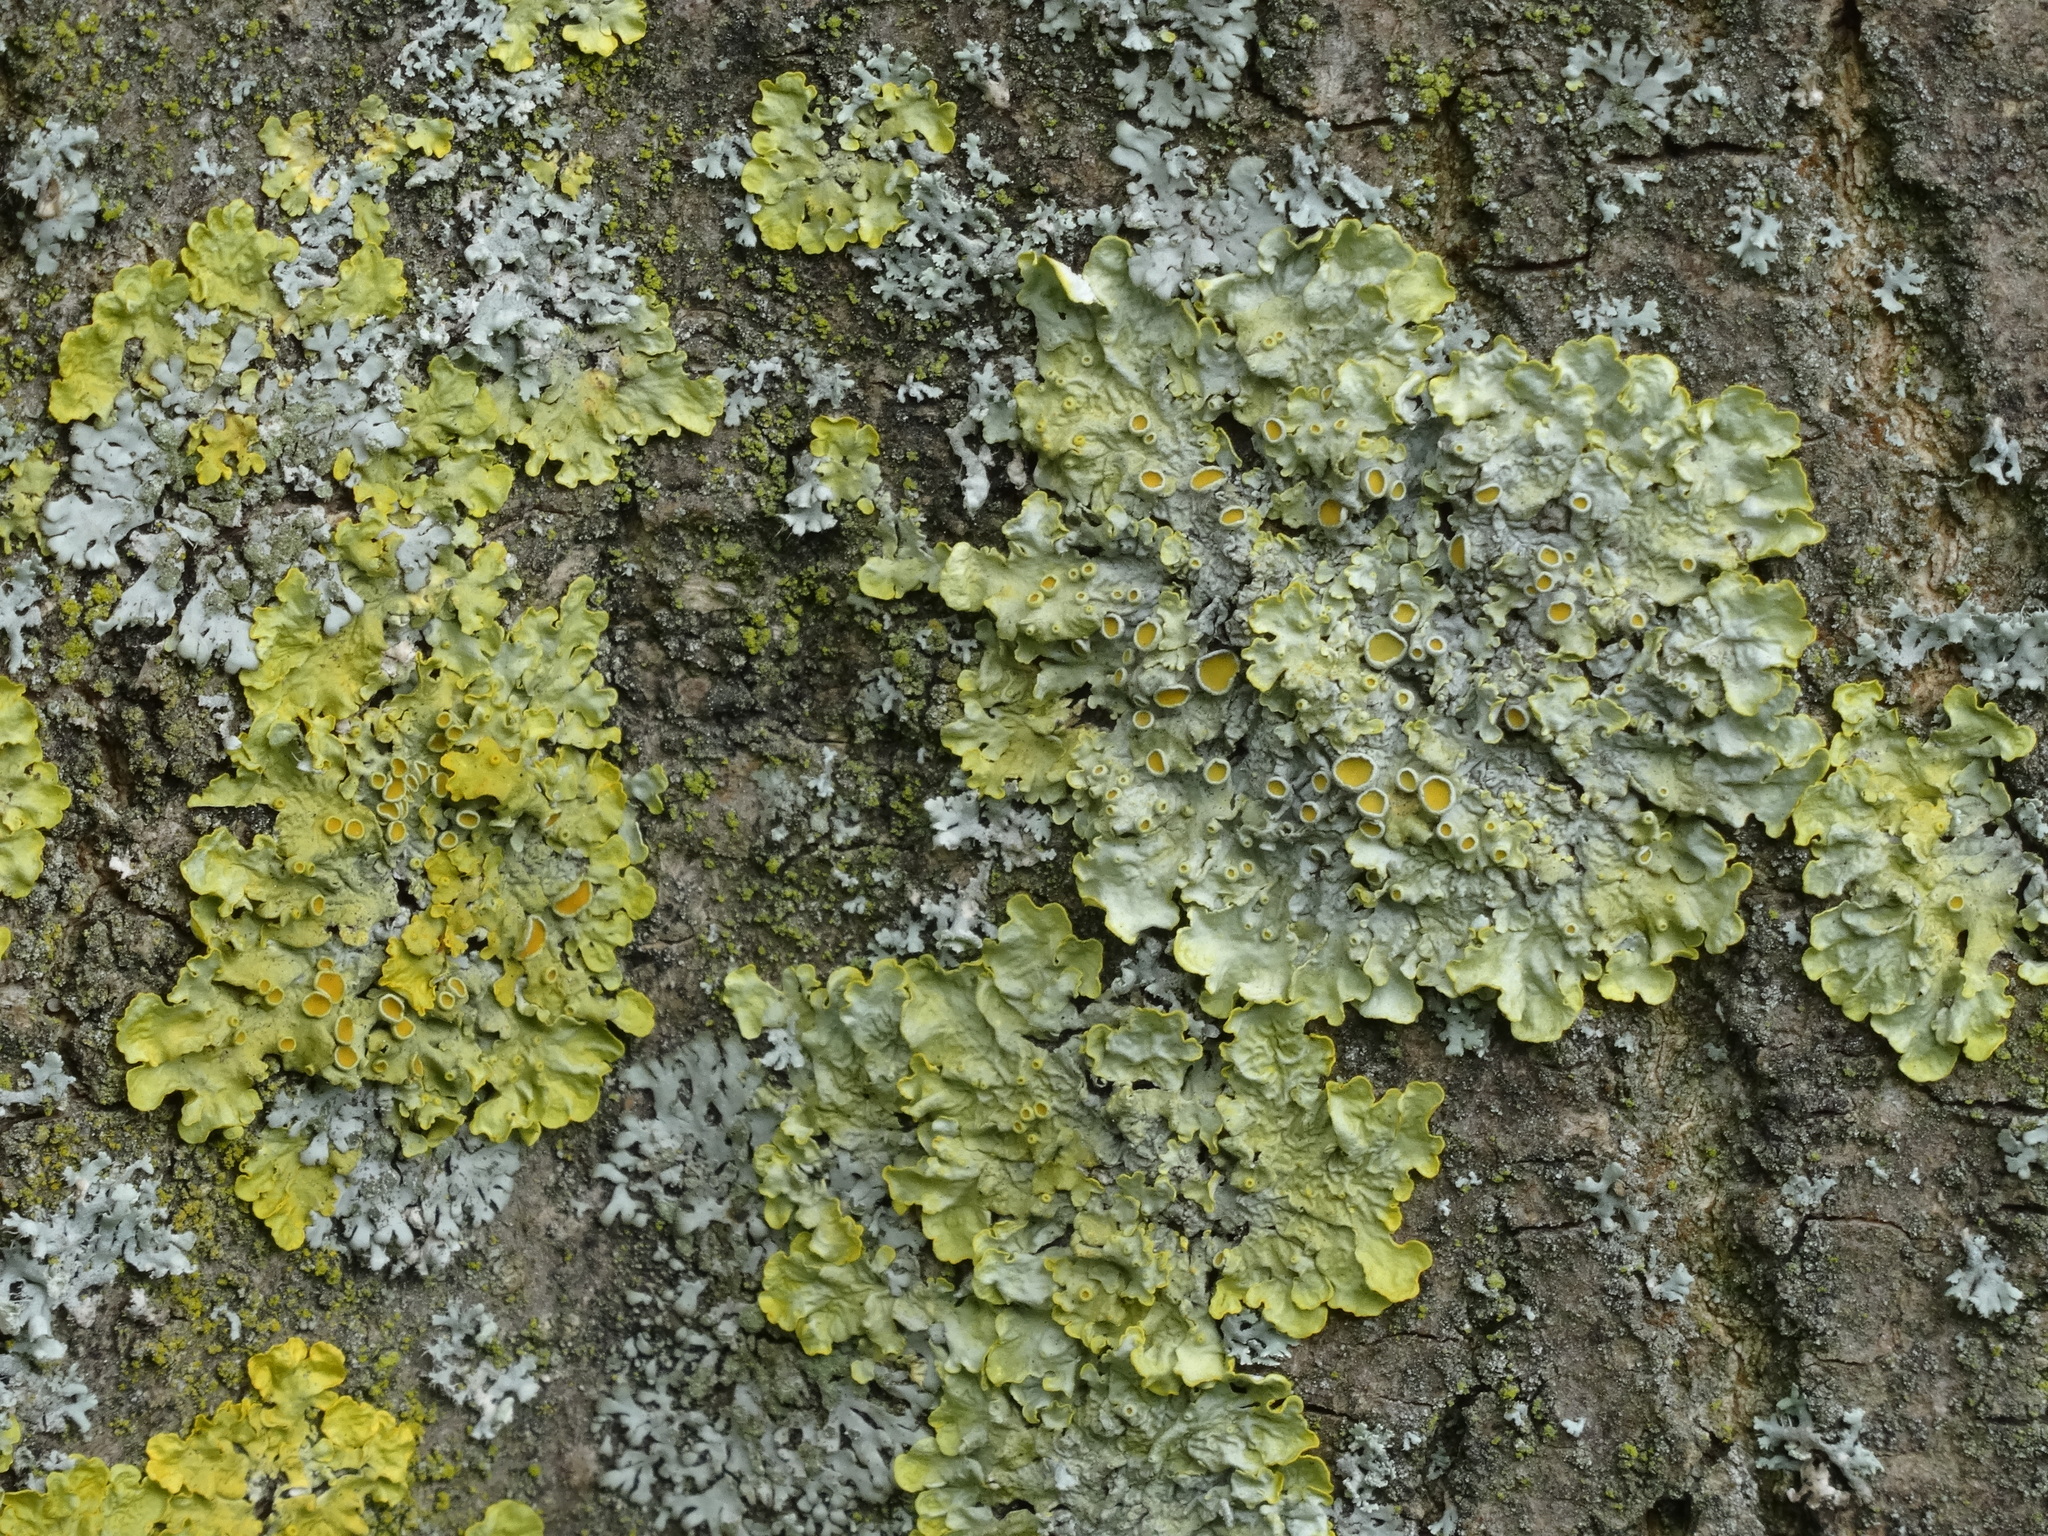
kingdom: Fungi
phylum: Ascomycota
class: Lecanoromycetes
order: Teloschistales
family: Teloschistaceae
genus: Xanthoria
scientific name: Xanthoria parietina
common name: Common orange lichen
